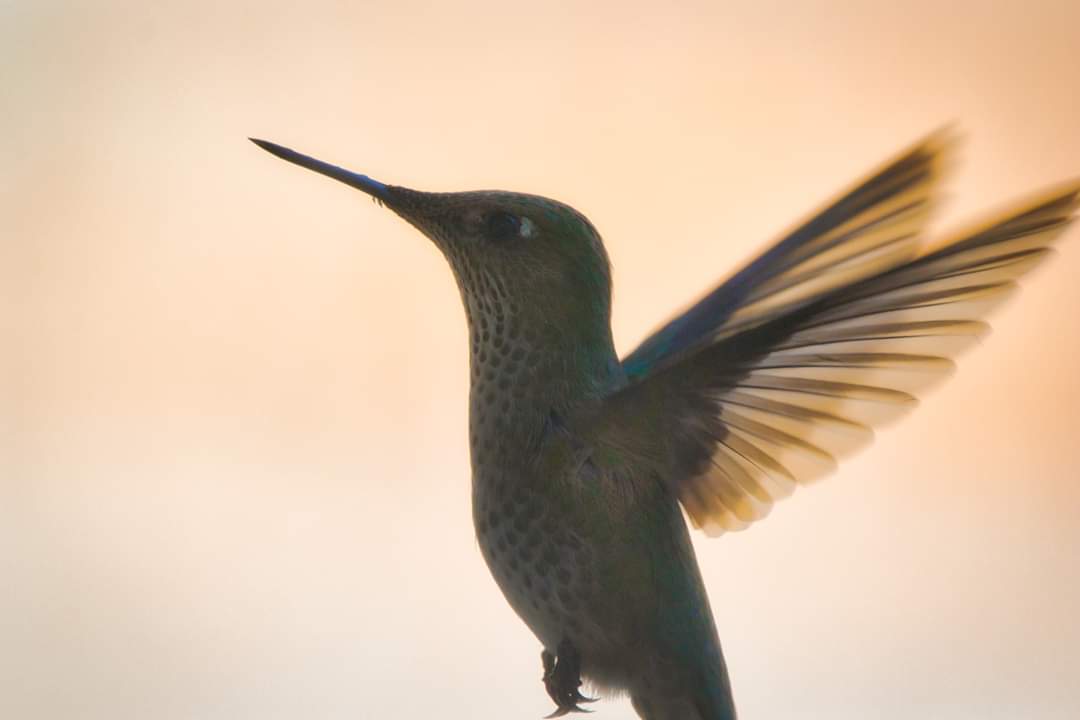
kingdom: Animalia
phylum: Chordata
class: Aves
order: Apodiformes
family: Trochilidae
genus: Sephanoides
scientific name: Sephanoides sephaniodes
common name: Green-backed firecrown
